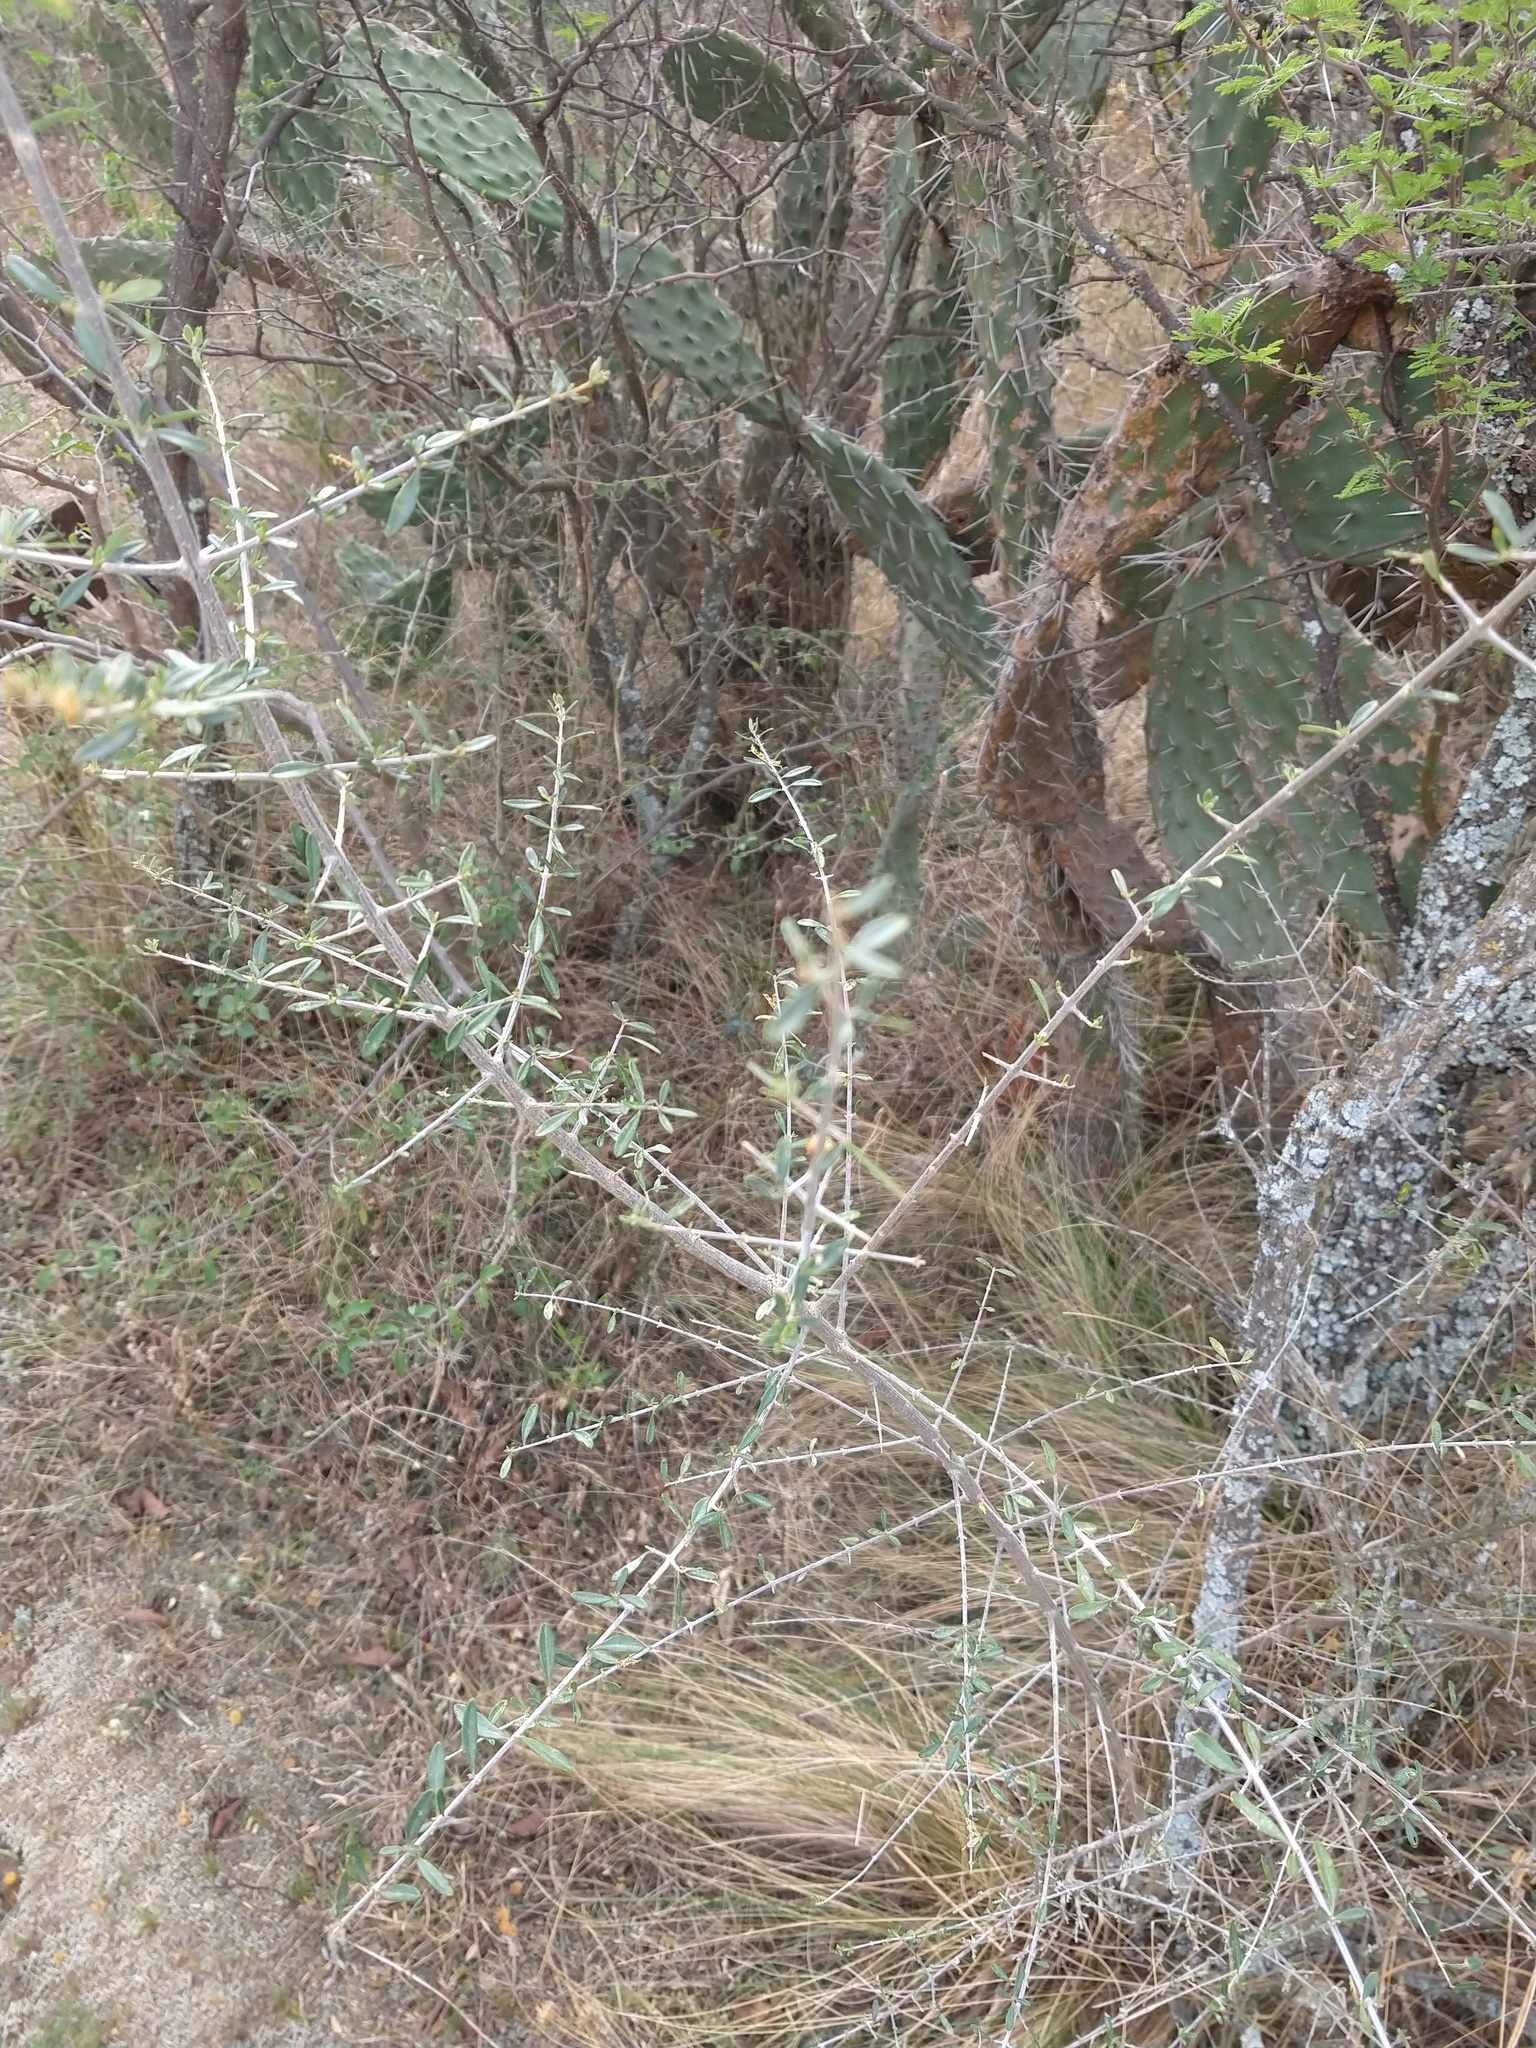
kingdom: Plantae
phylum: Tracheophyta
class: Magnoliopsida
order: Lamiales
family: Verbenaceae
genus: Aloysia
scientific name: Aloysia gratissima
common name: Common bee-brush
